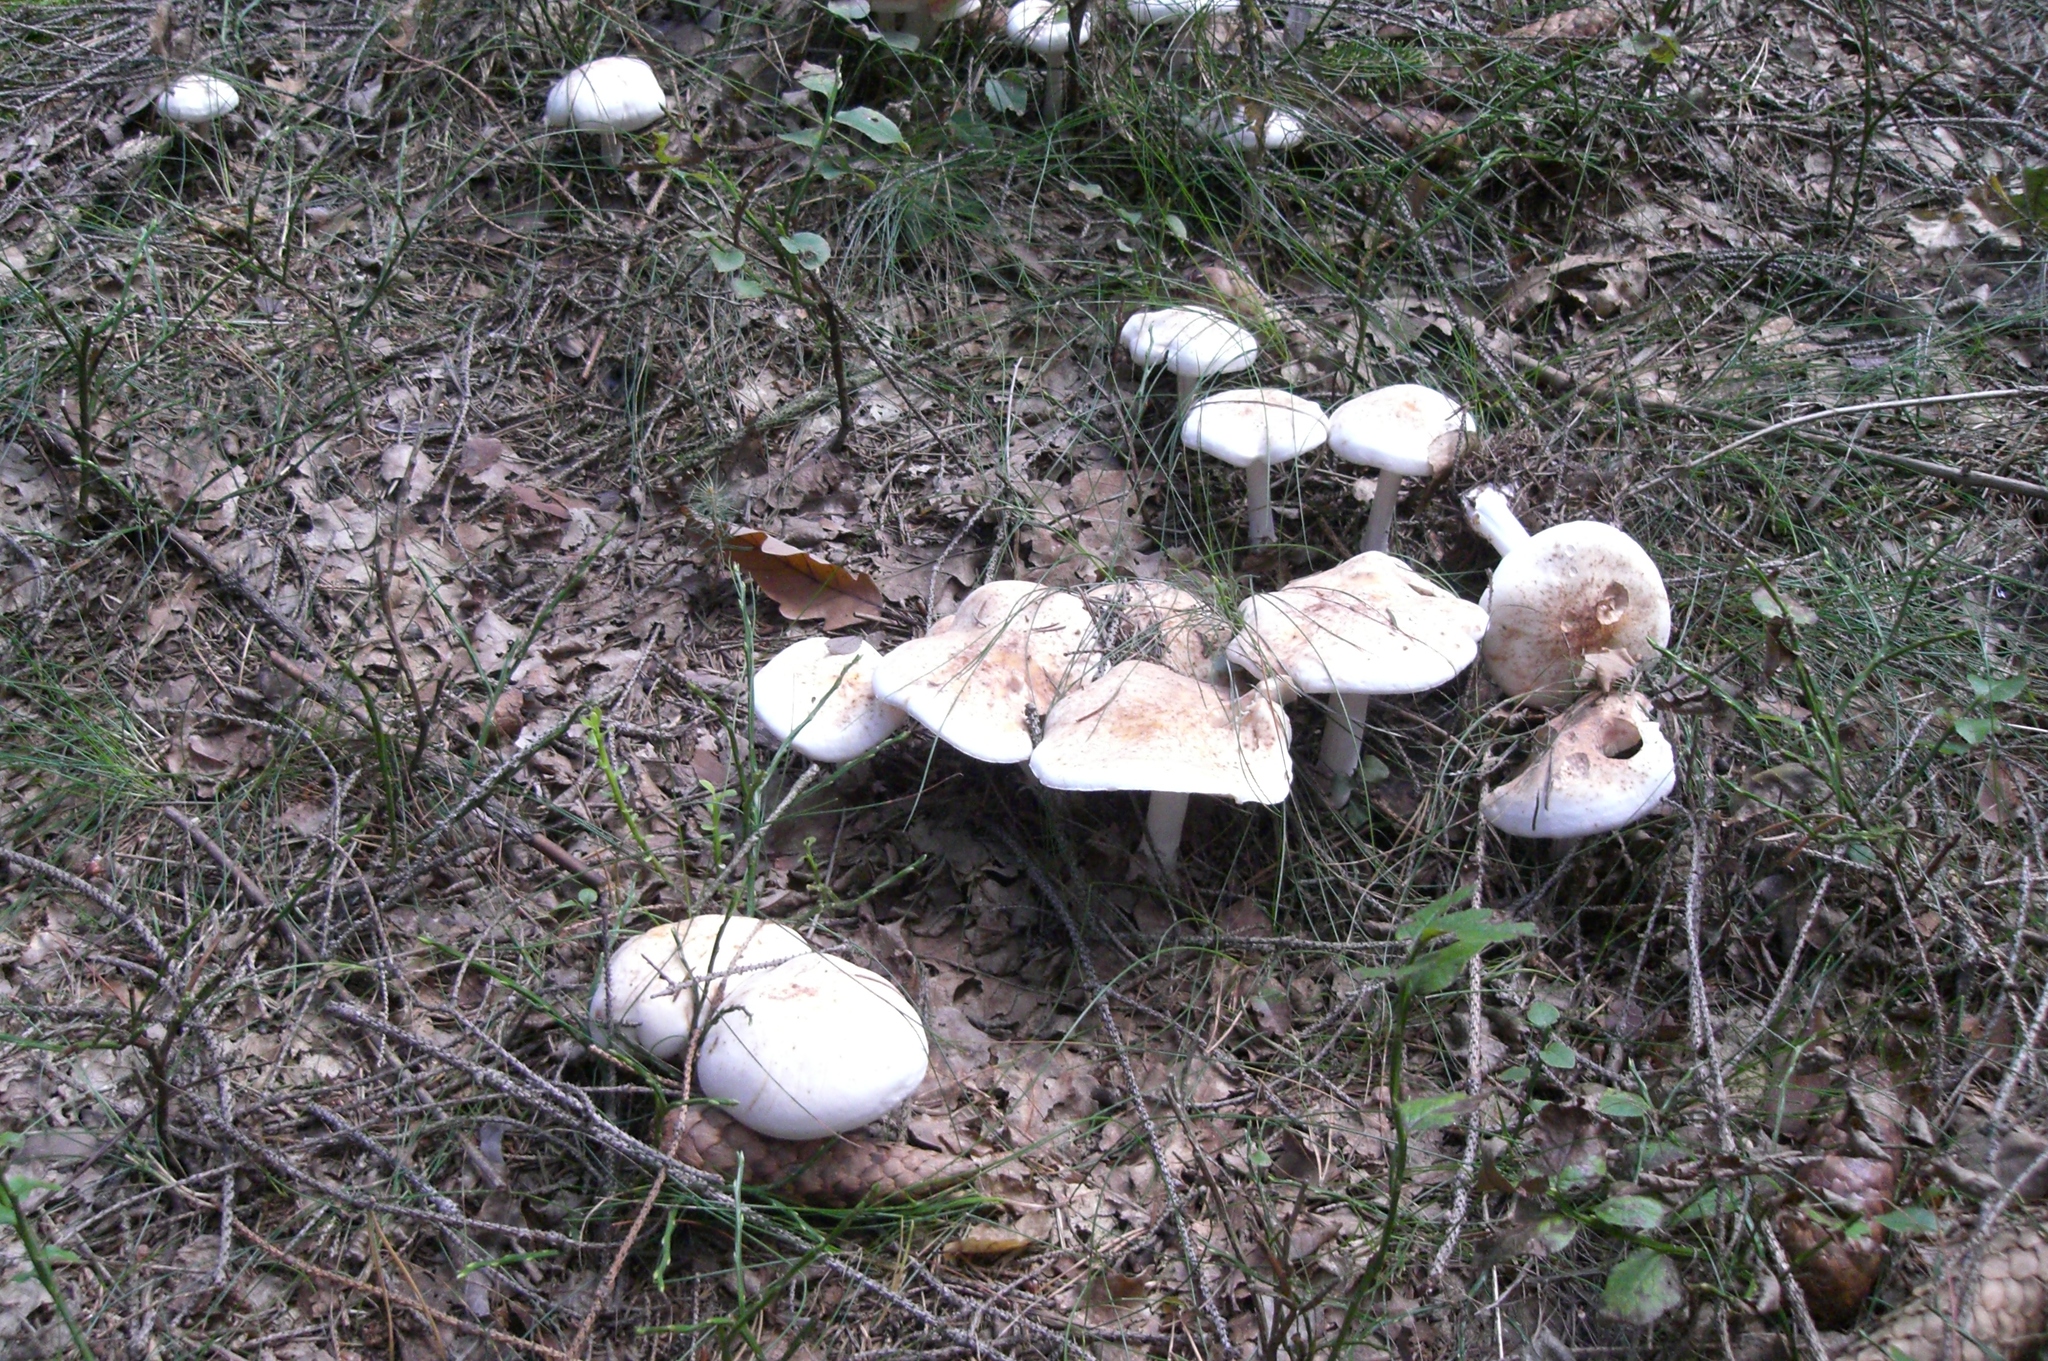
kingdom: Fungi
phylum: Basidiomycota
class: Agaricomycetes
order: Russulales
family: Russulaceae
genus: Lactifluus
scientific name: Lactifluus piperatus
